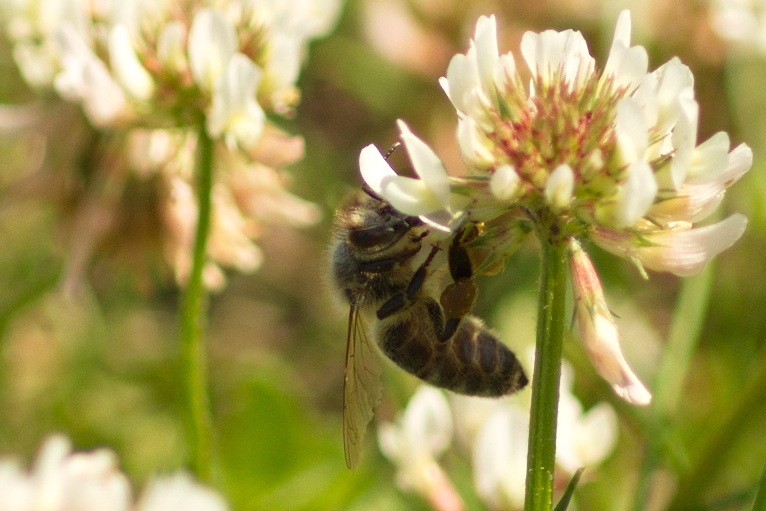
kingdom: Animalia
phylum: Arthropoda
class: Insecta
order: Hymenoptera
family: Apidae
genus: Apis
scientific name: Apis mellifera
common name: Honey bee
